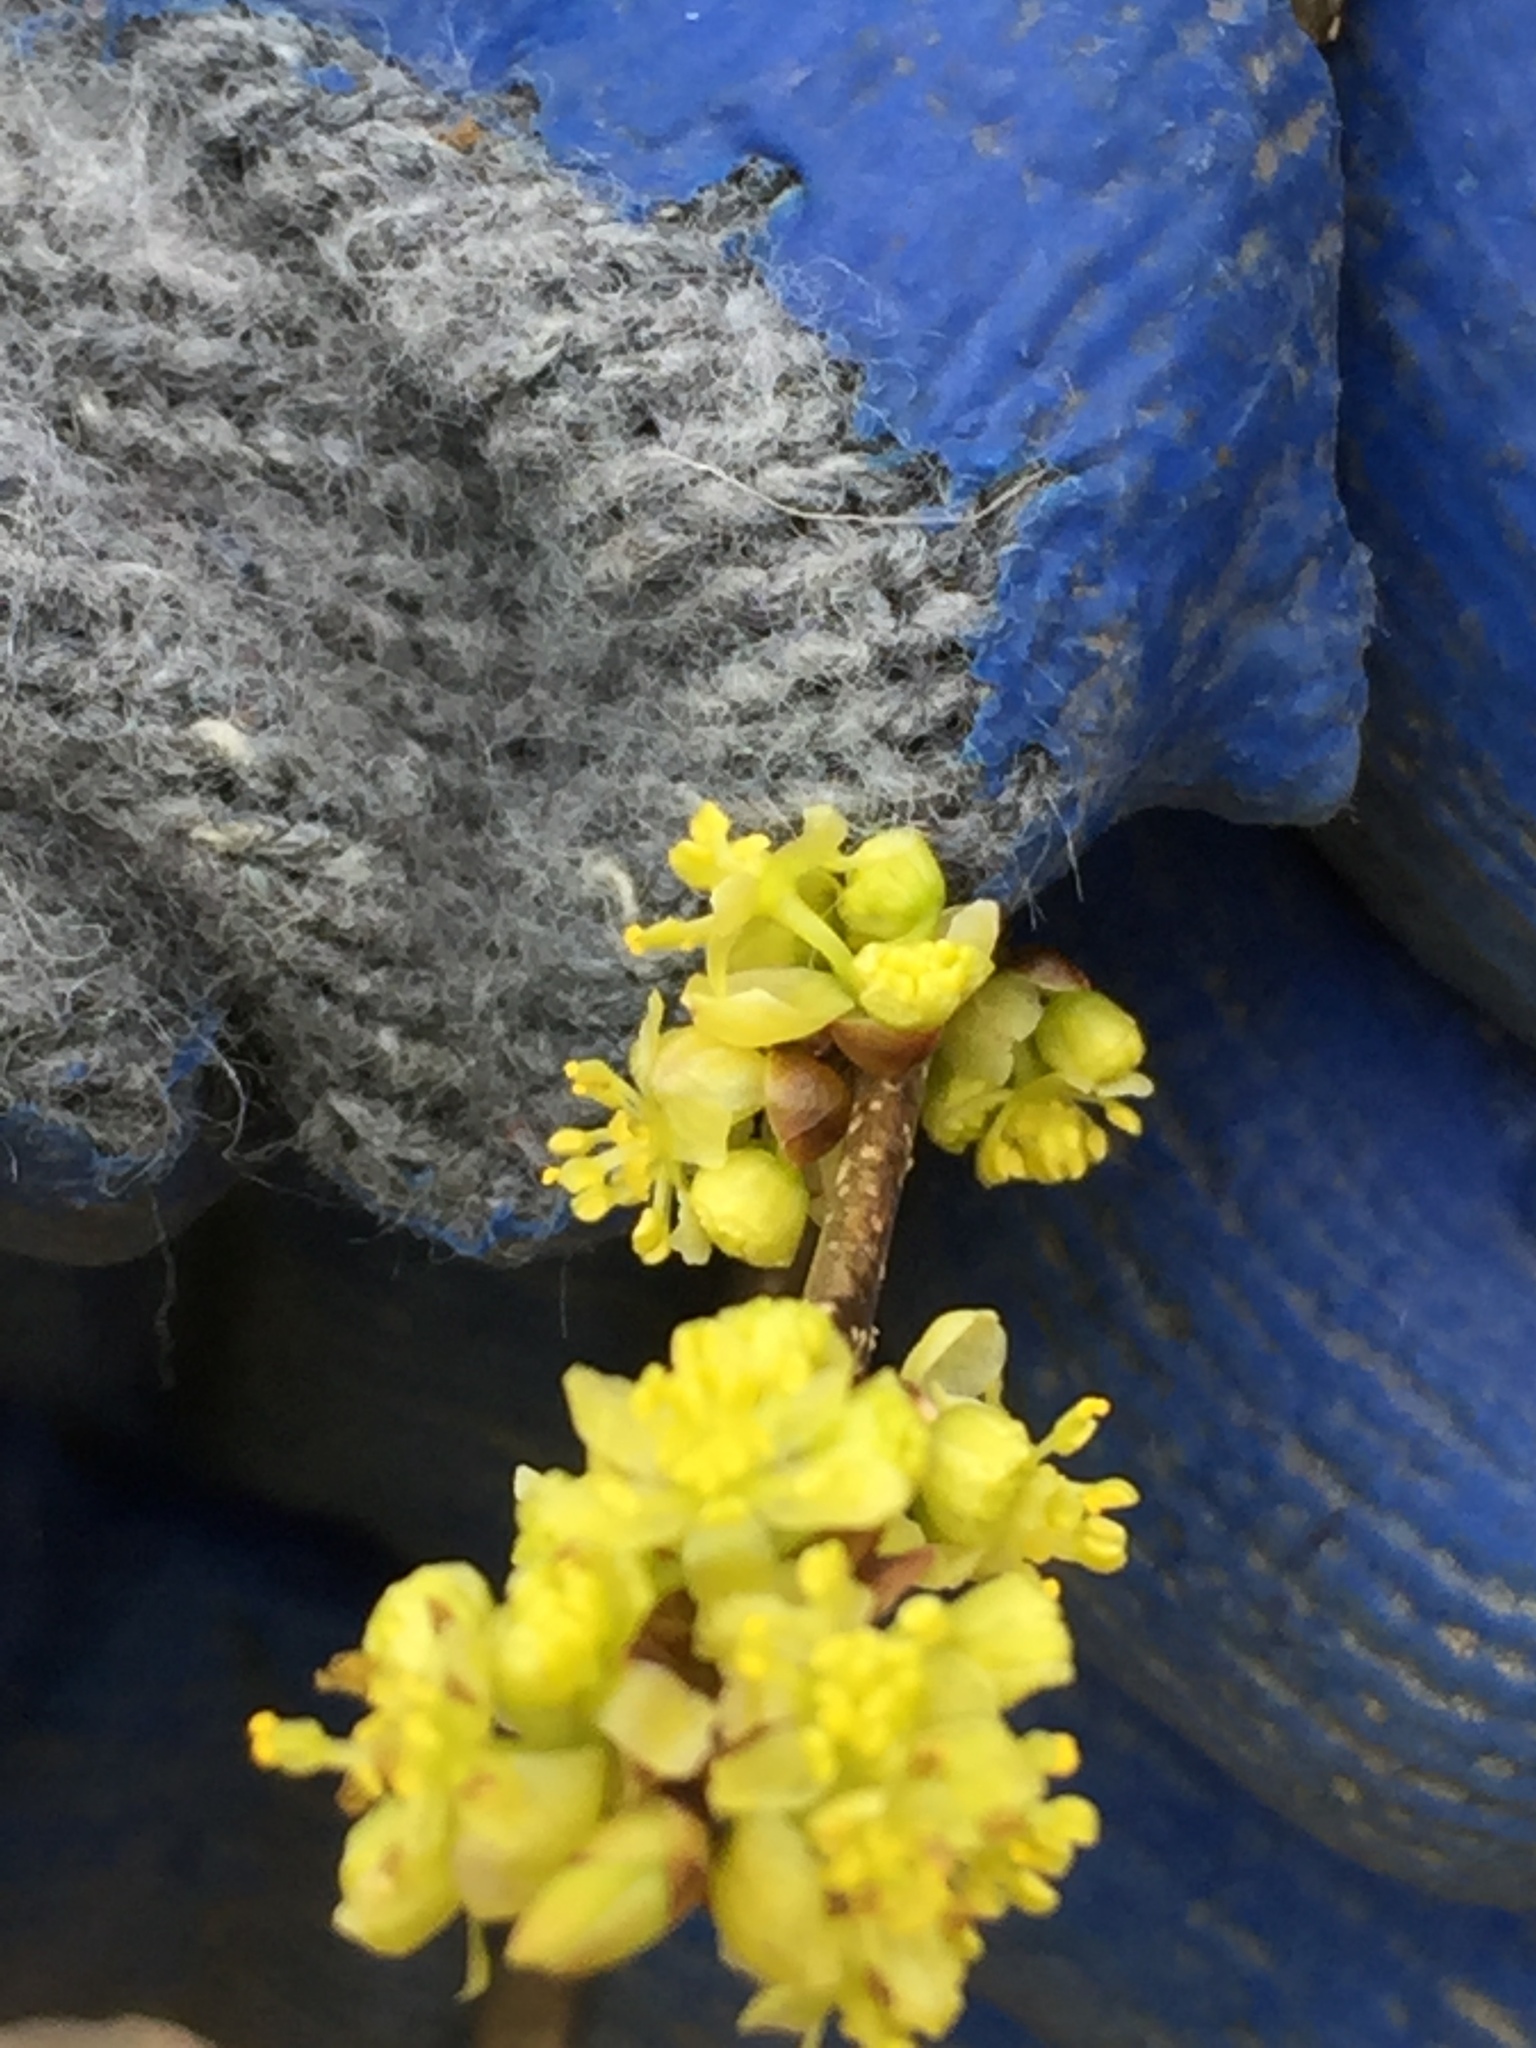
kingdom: Plantae
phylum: Tracheophyta
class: Magnoliopsida
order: Laurales
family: Lauraceae
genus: Lindera
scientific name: Lindera benzoin
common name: Spicebush
